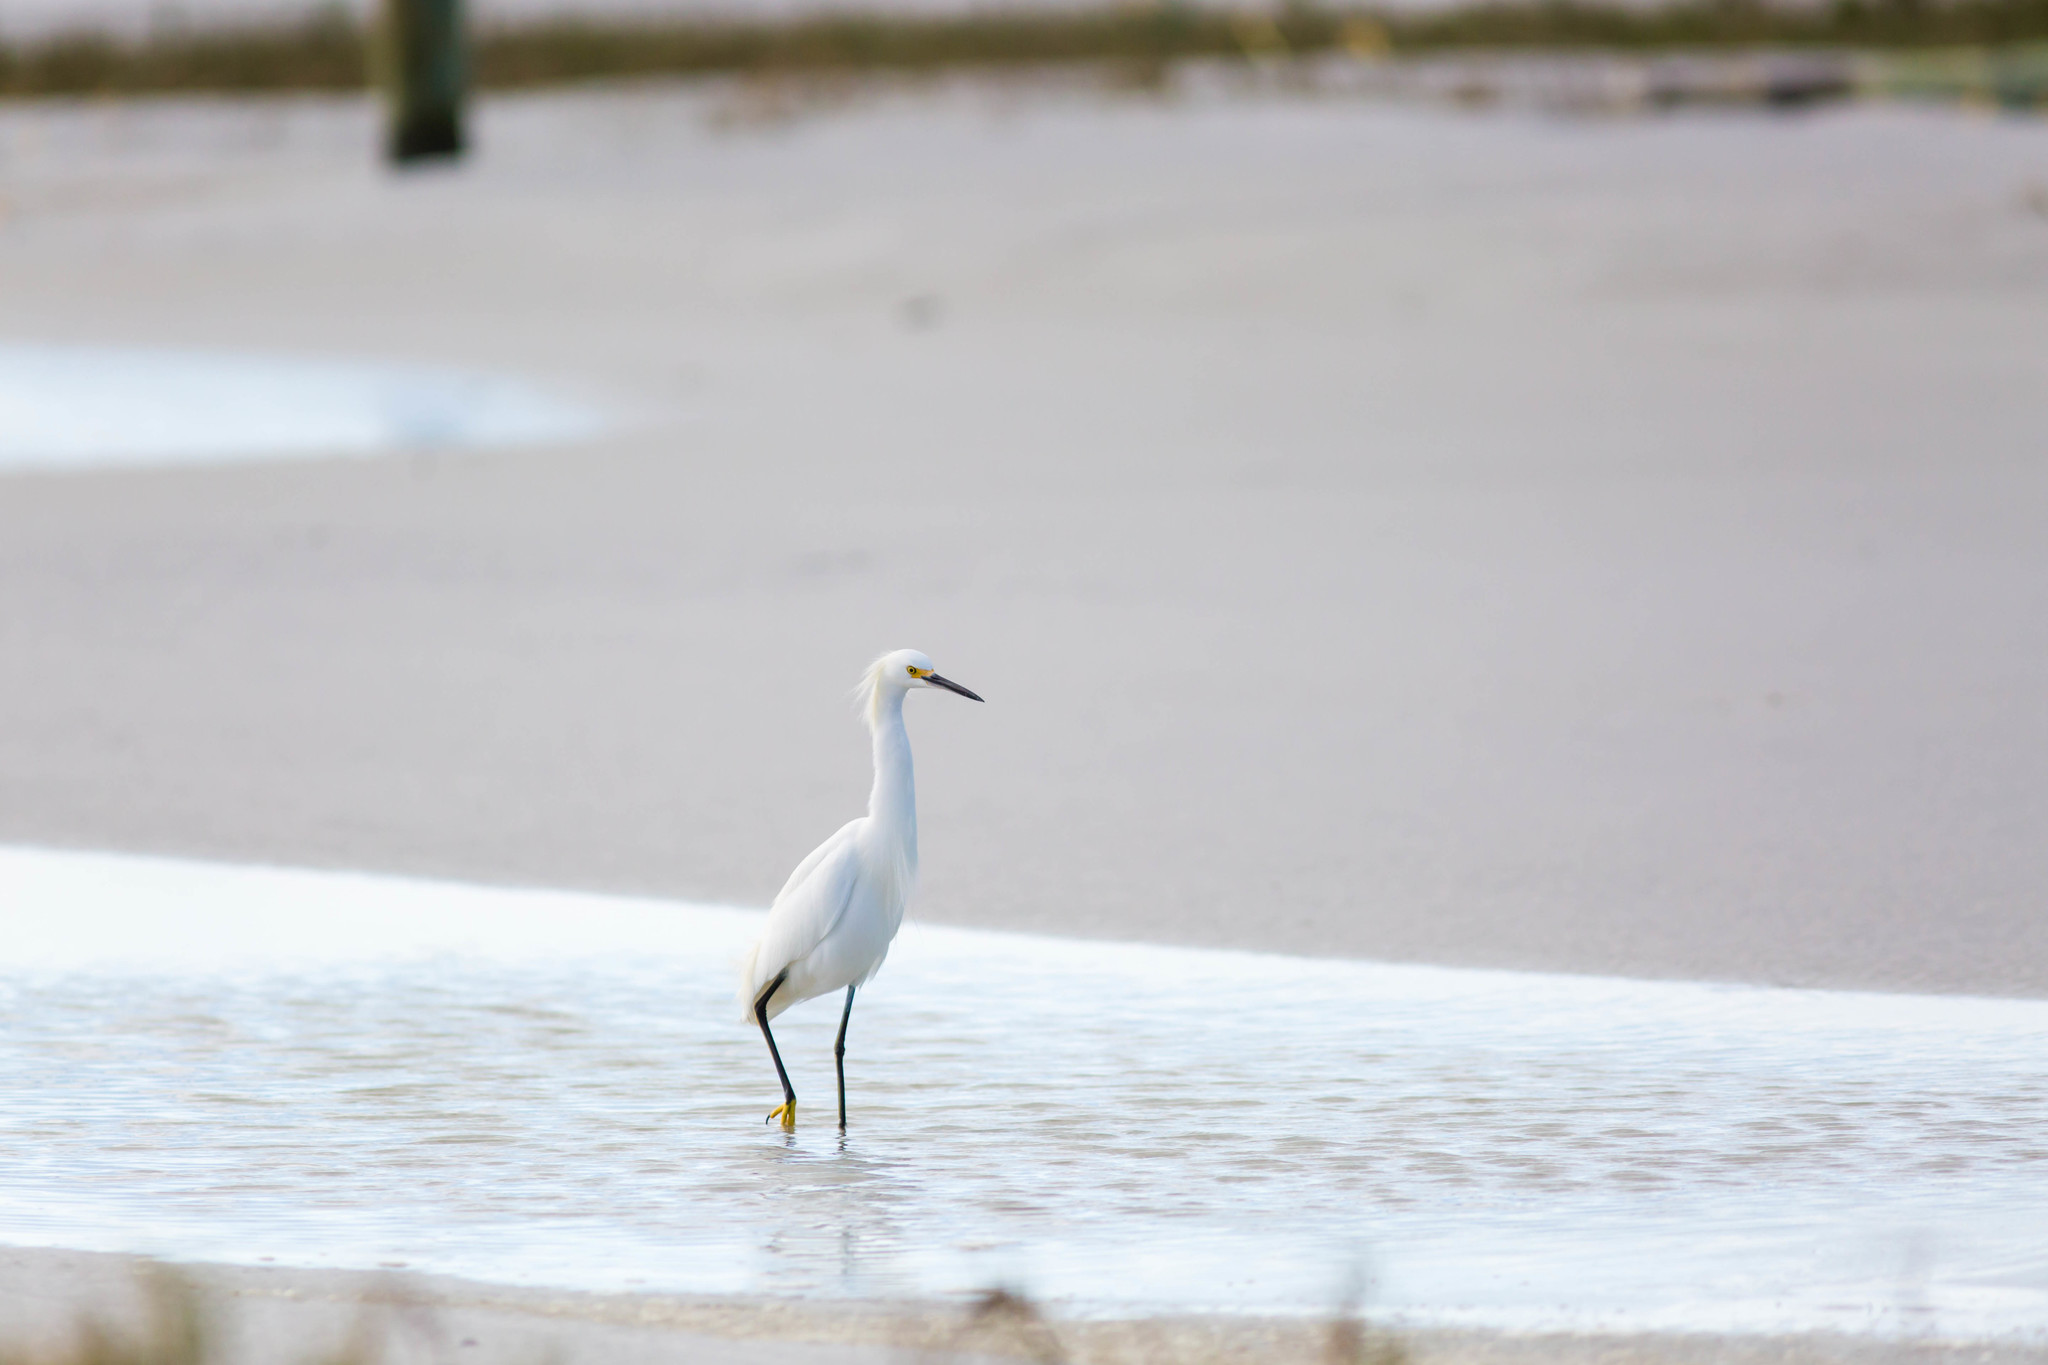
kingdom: Animalia
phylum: Chordata
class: Aves
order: Pelecaniformes
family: Ardeidae
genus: Egretta
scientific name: Egretta thula
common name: Snowy egret
